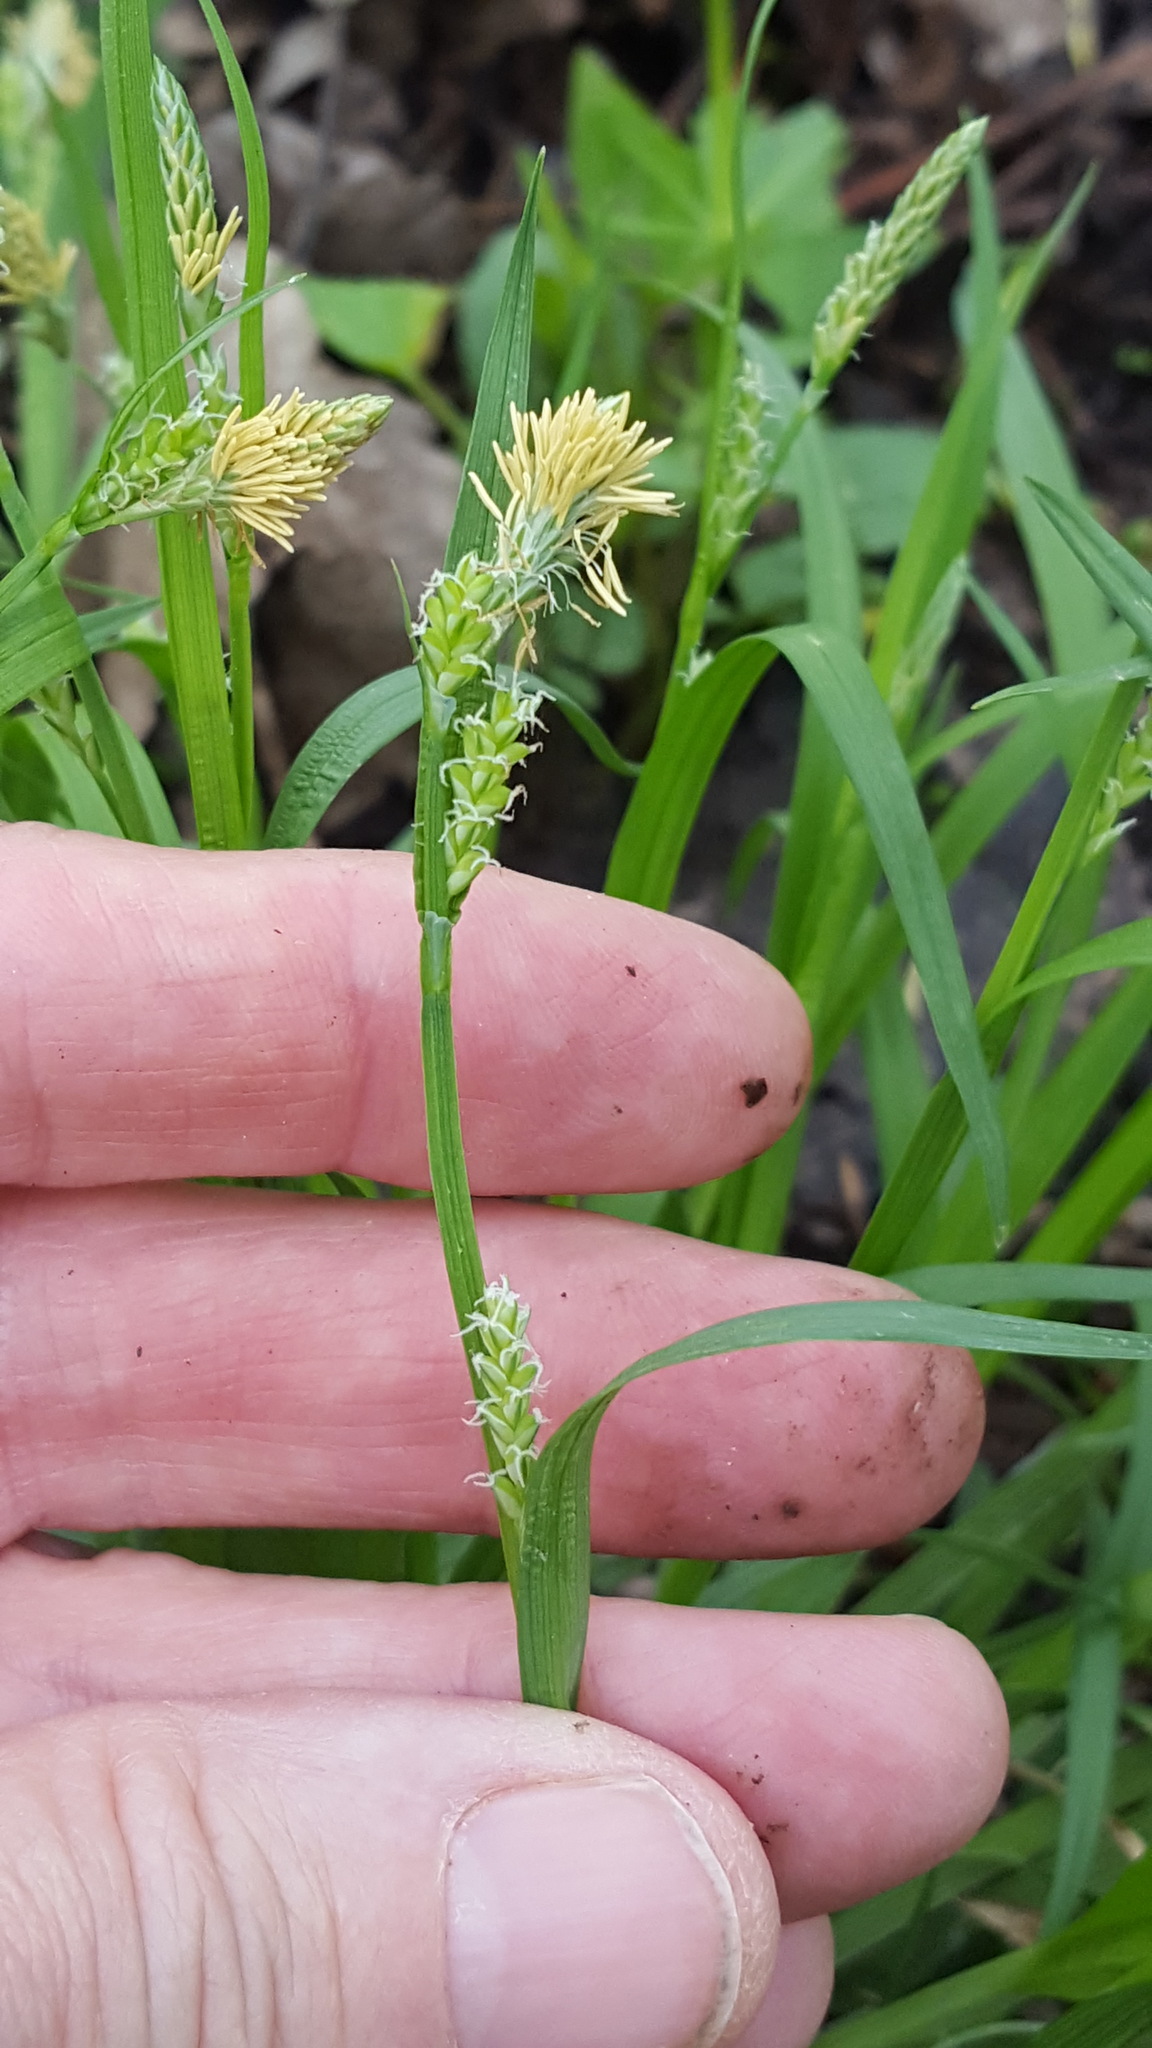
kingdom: Plantae
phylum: Tracheophyta
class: Liliopsida
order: Poales
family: Cyperaceae
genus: Carex
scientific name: Carex blanda
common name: Bland sedge
